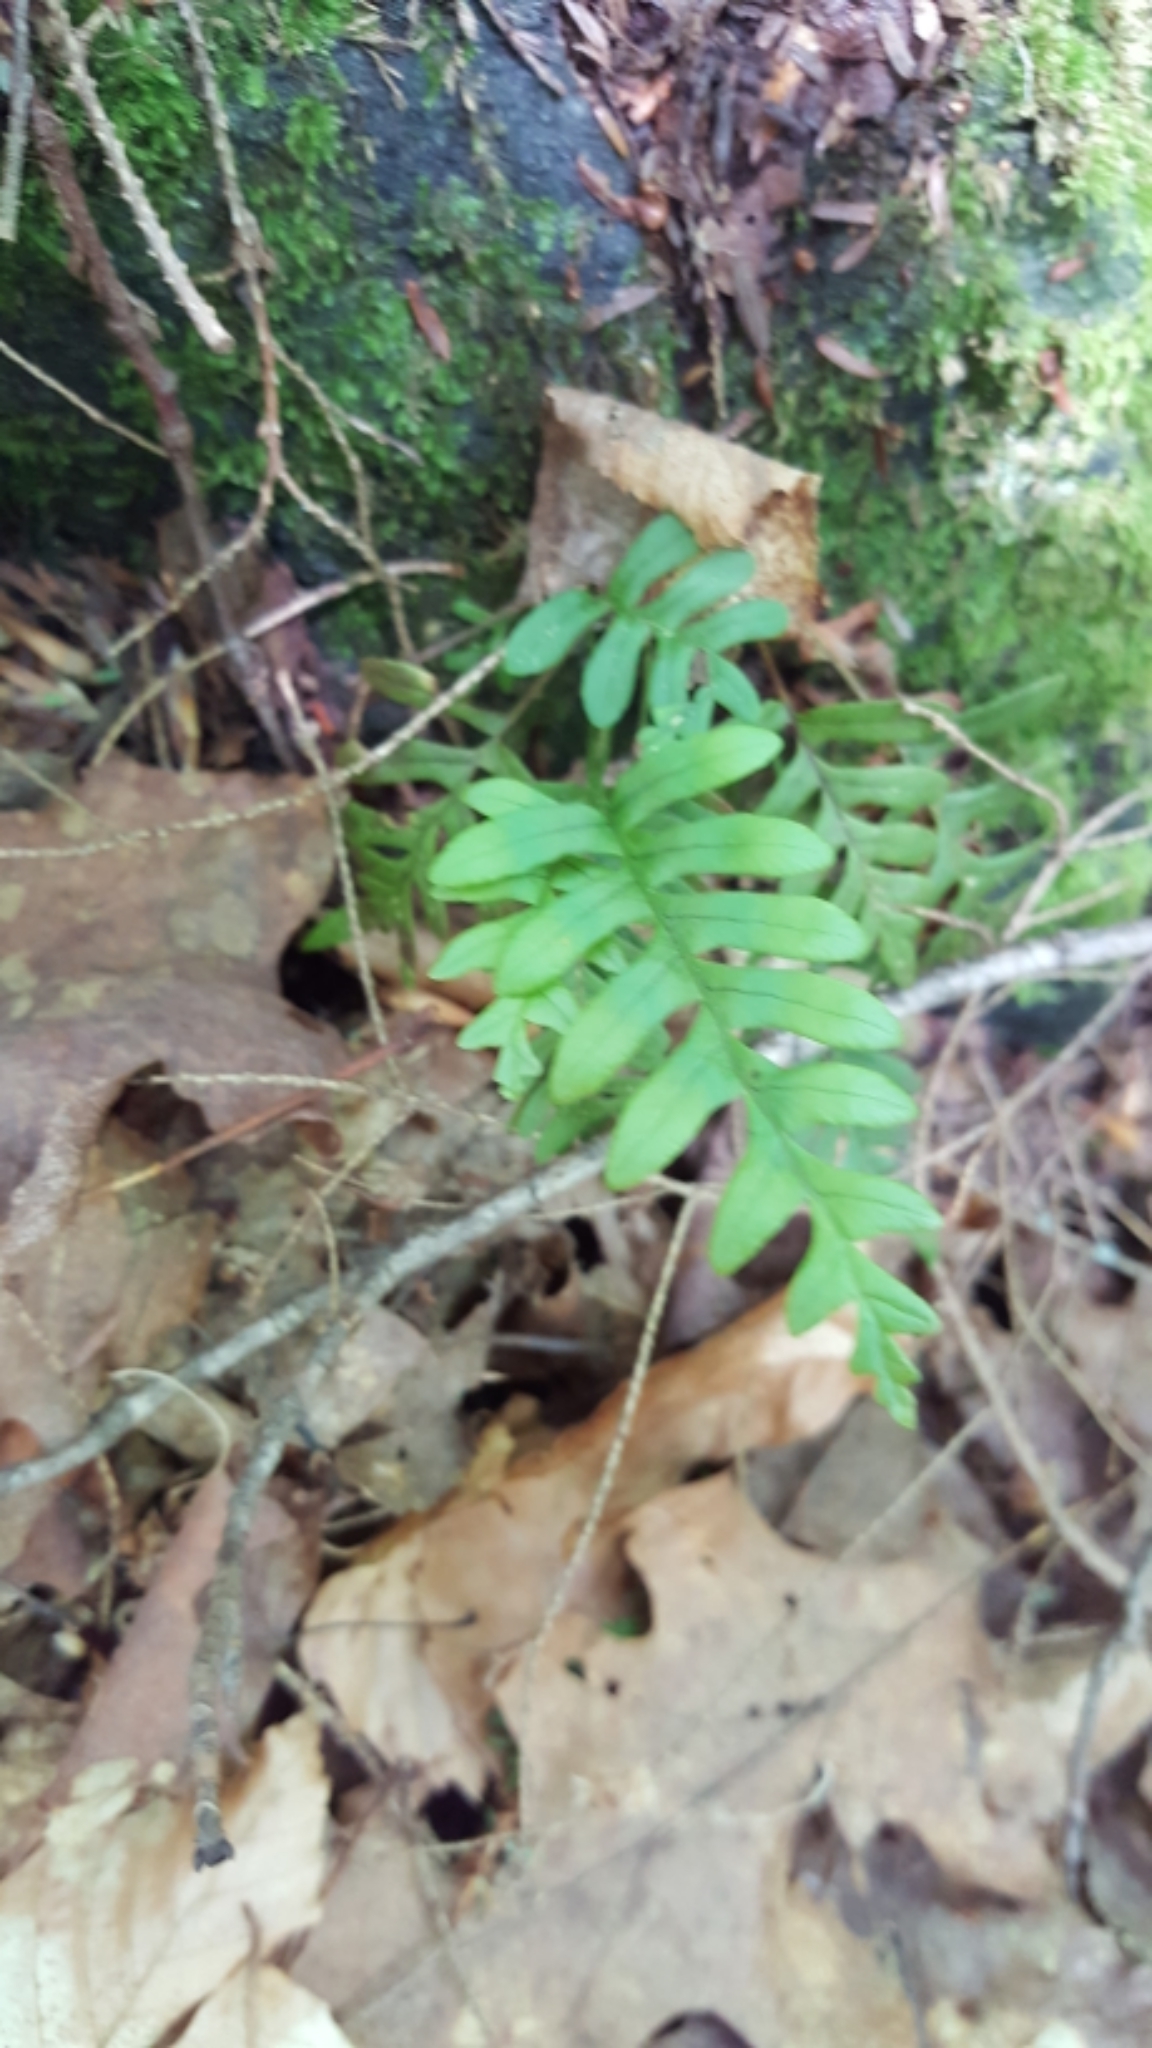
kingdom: Plantae
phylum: Tracheophyta
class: Polypodiopsida
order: Polypodiales
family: Polypodiaceae
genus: Polypodium
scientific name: Polypodium virginianum
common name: American wall fern
